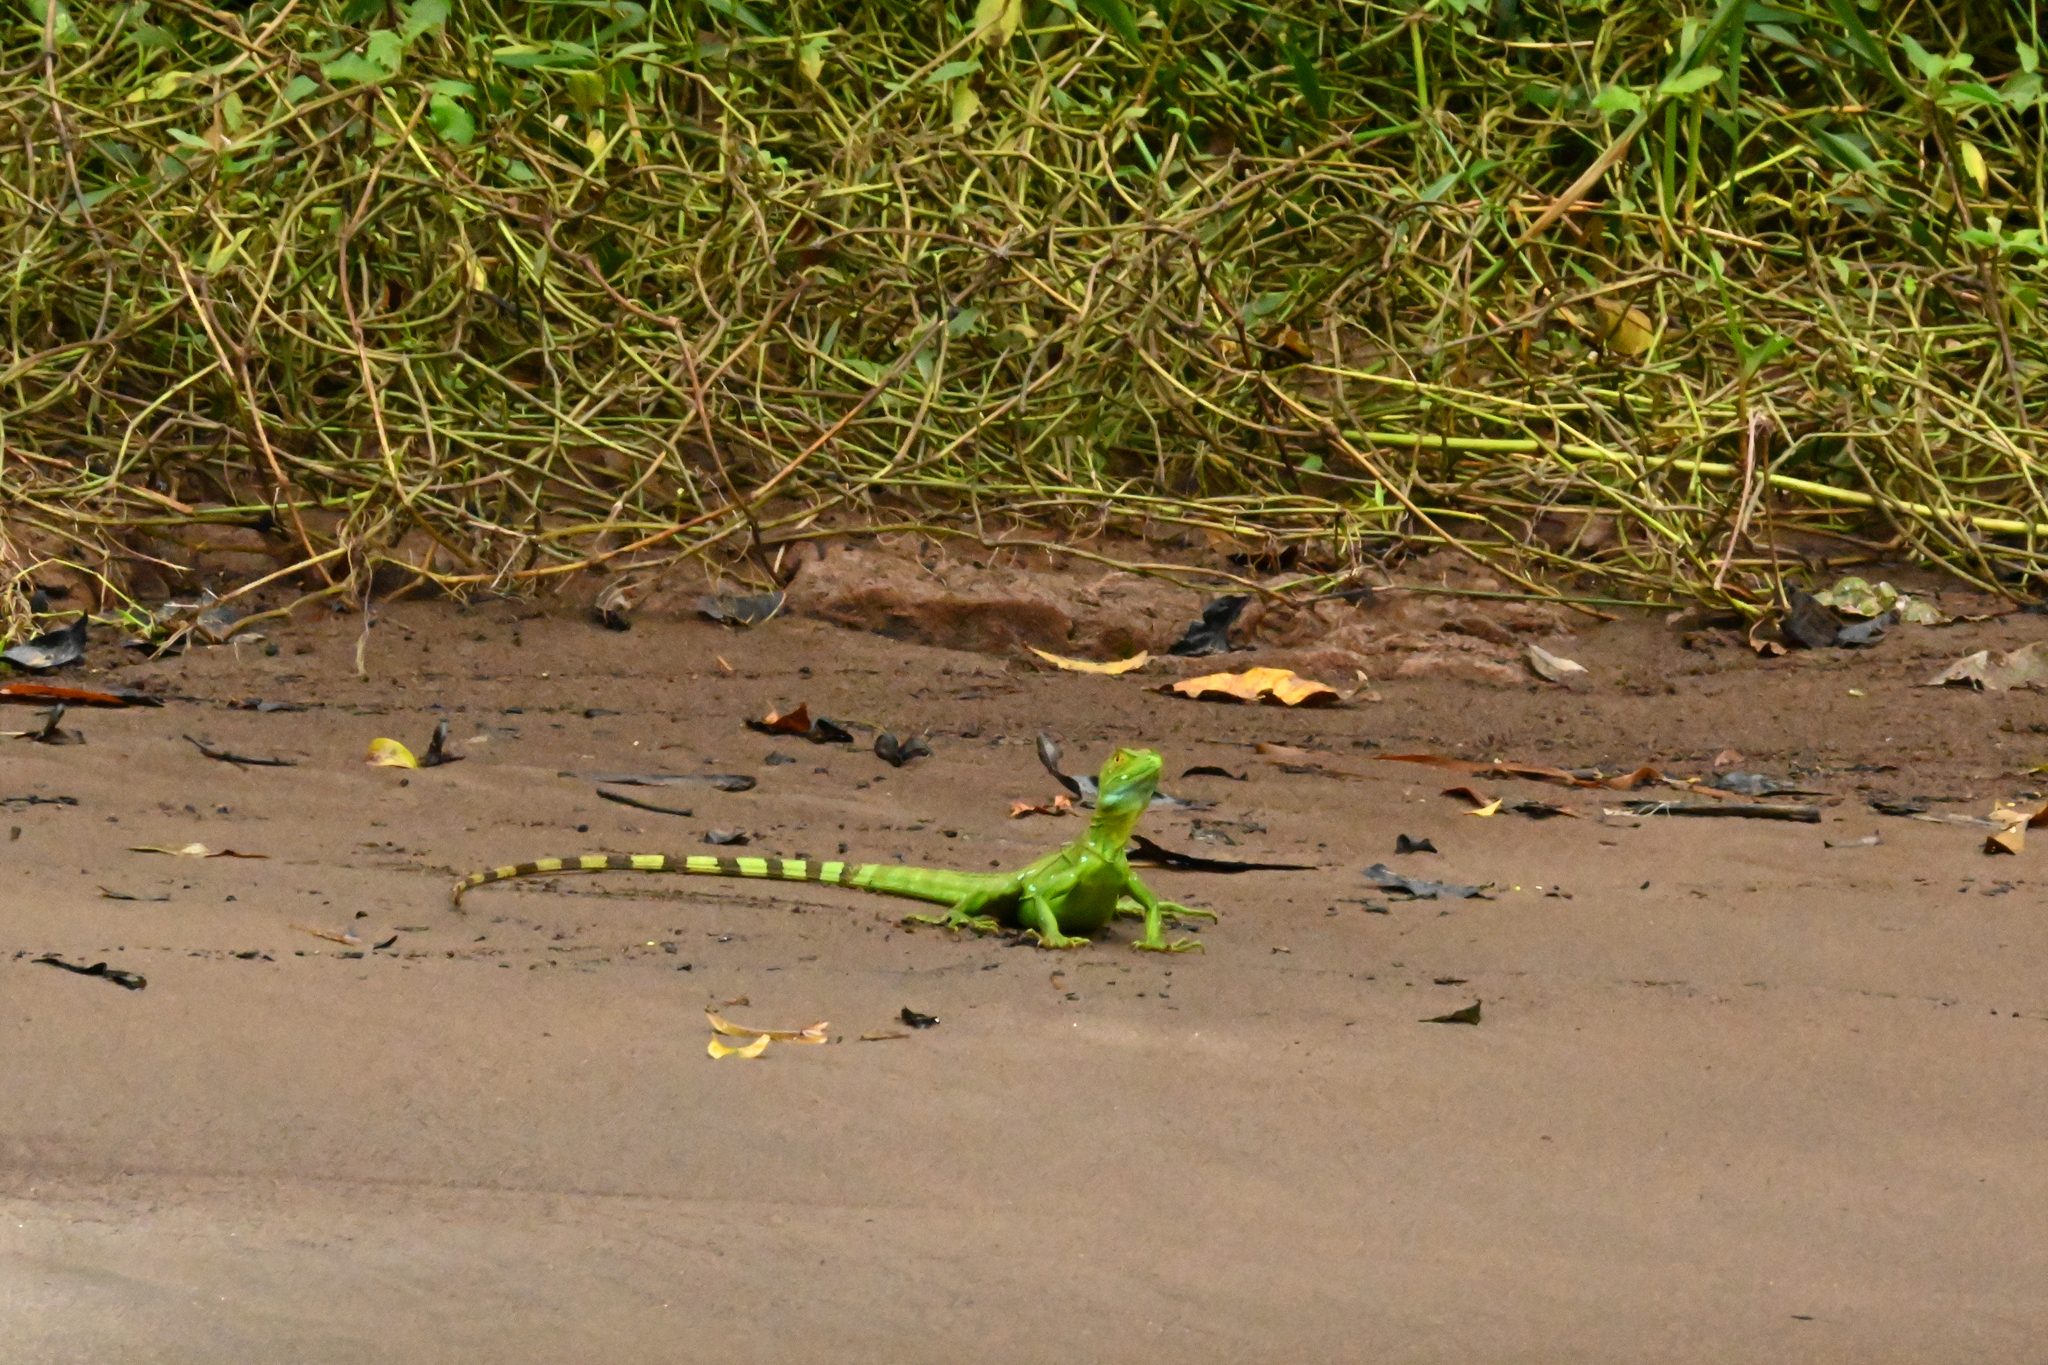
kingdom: Animalia
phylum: Chordata
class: Squamata
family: Corytophanidae
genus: Basiliscus
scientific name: Basiliscus plumifrons
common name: Green basilisk
